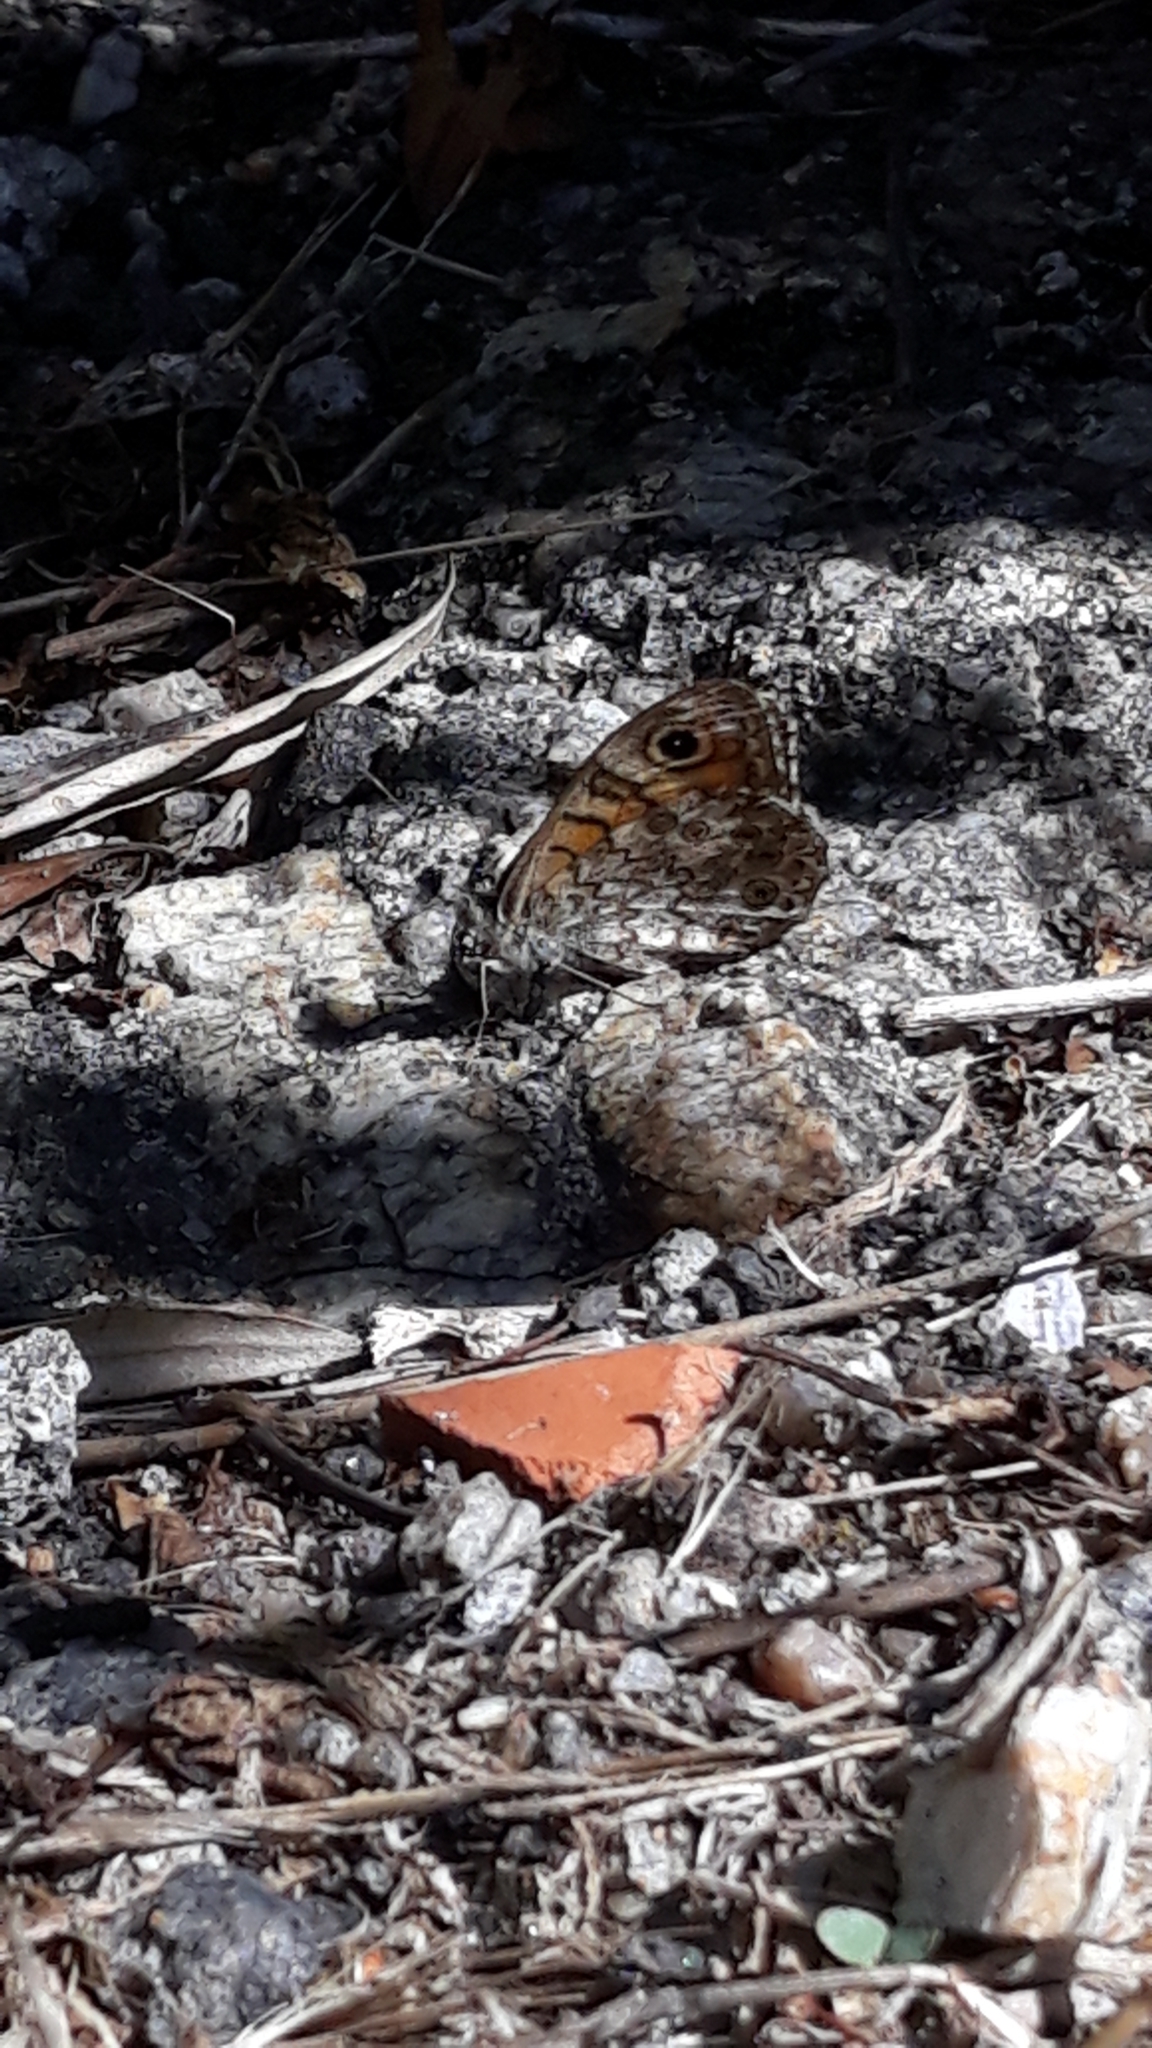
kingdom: Animalia
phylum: Arthropoda
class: Insecta
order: Lepidoptera
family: Nymphalidae
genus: Pararge
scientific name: Pararge Lasiommata megera
